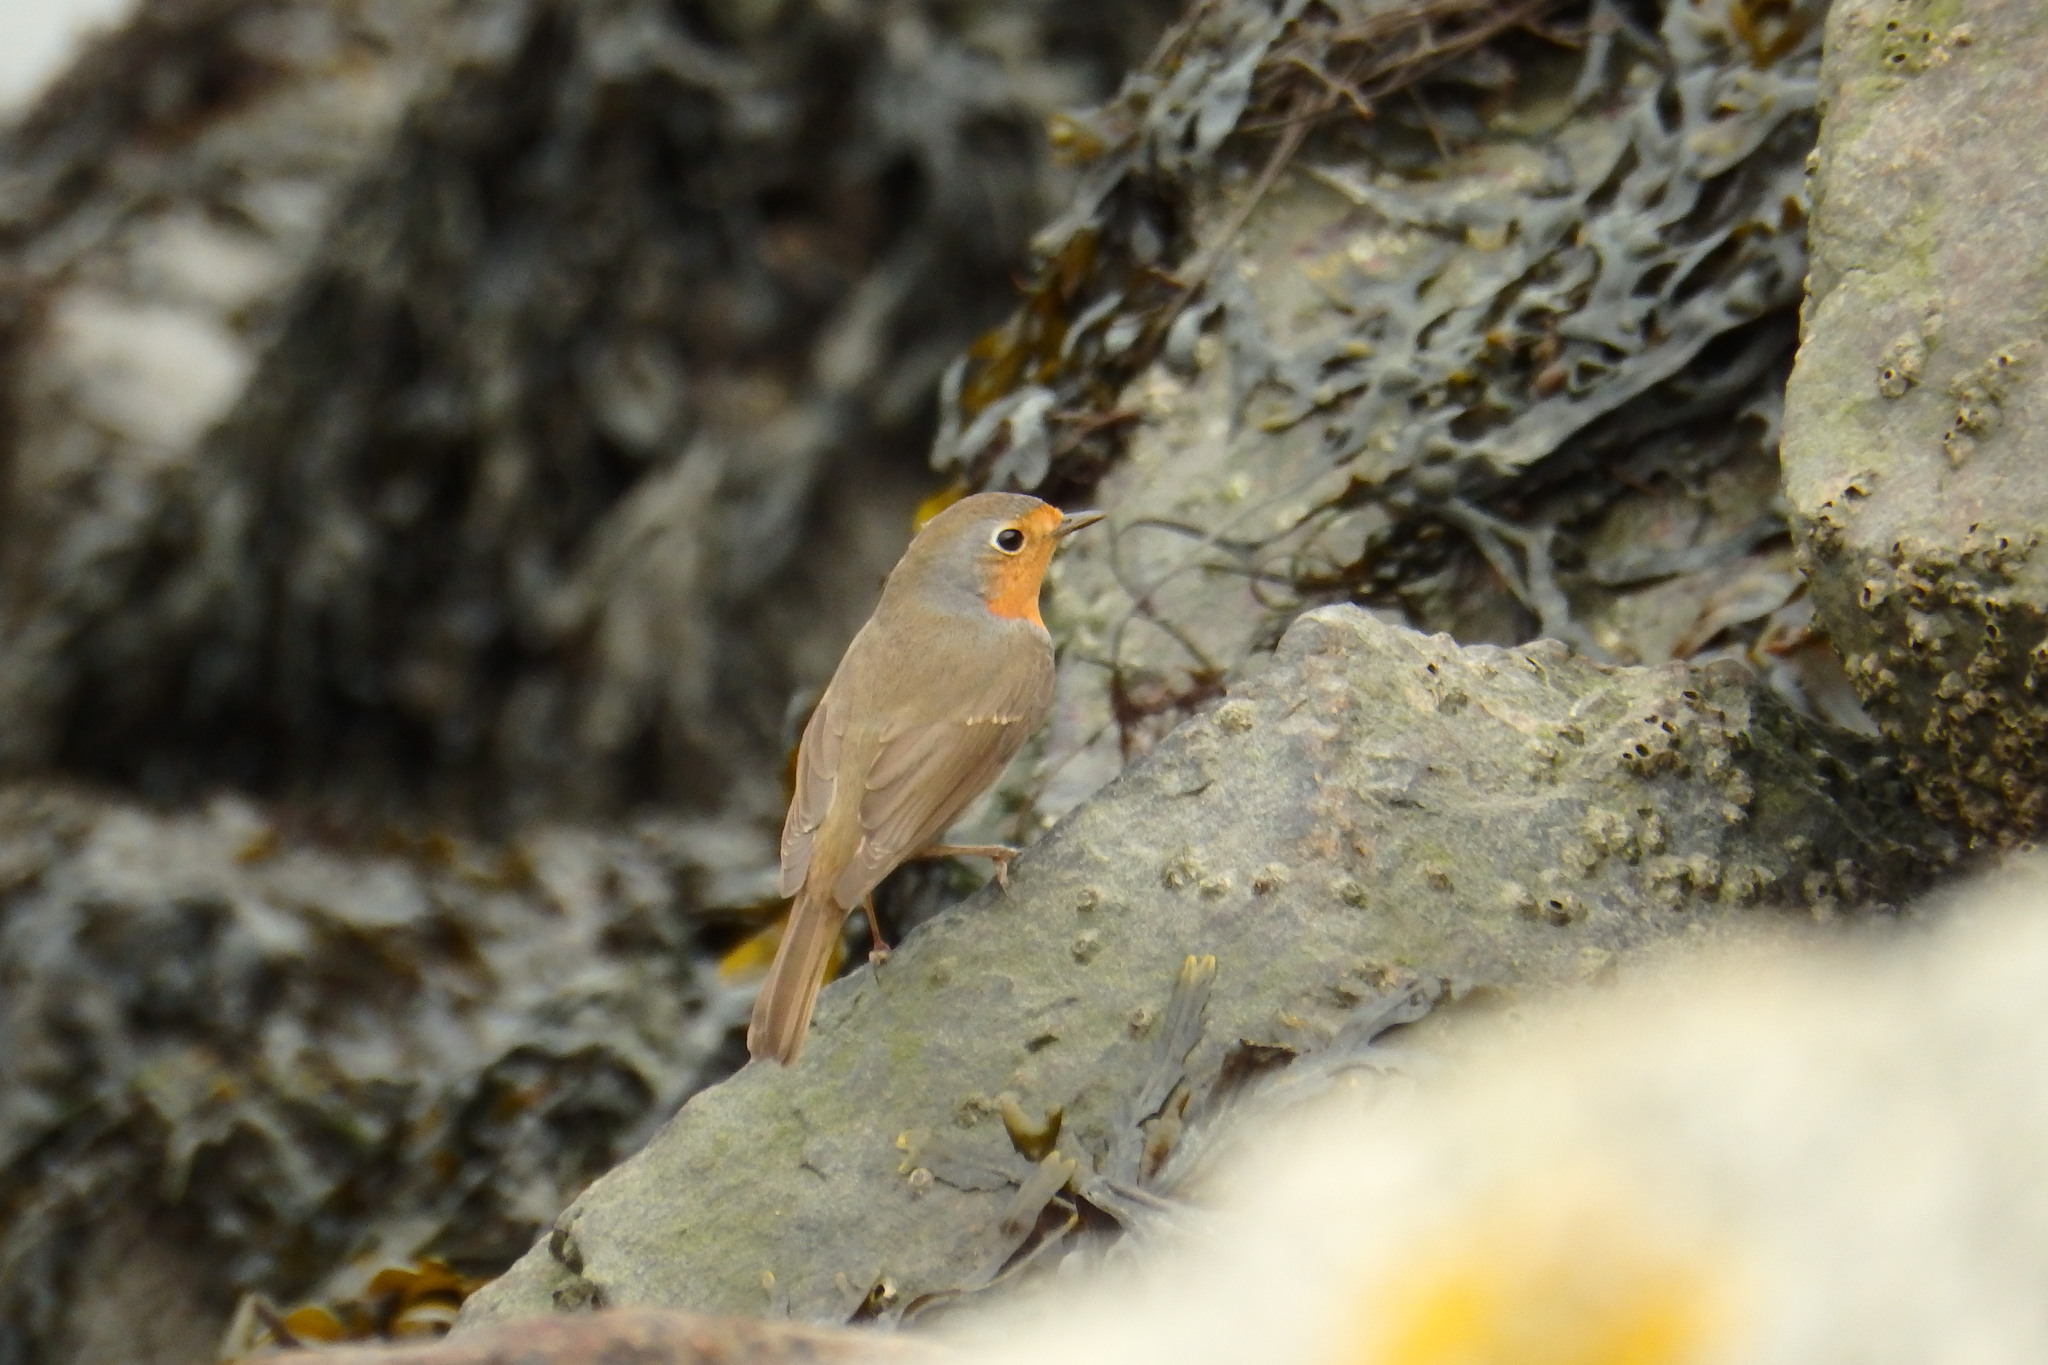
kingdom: Animalia
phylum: Chordata
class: Aves
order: Passeriformes
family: Muscicapidae
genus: Erithacus
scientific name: Erithacus rubecula
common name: European robin
